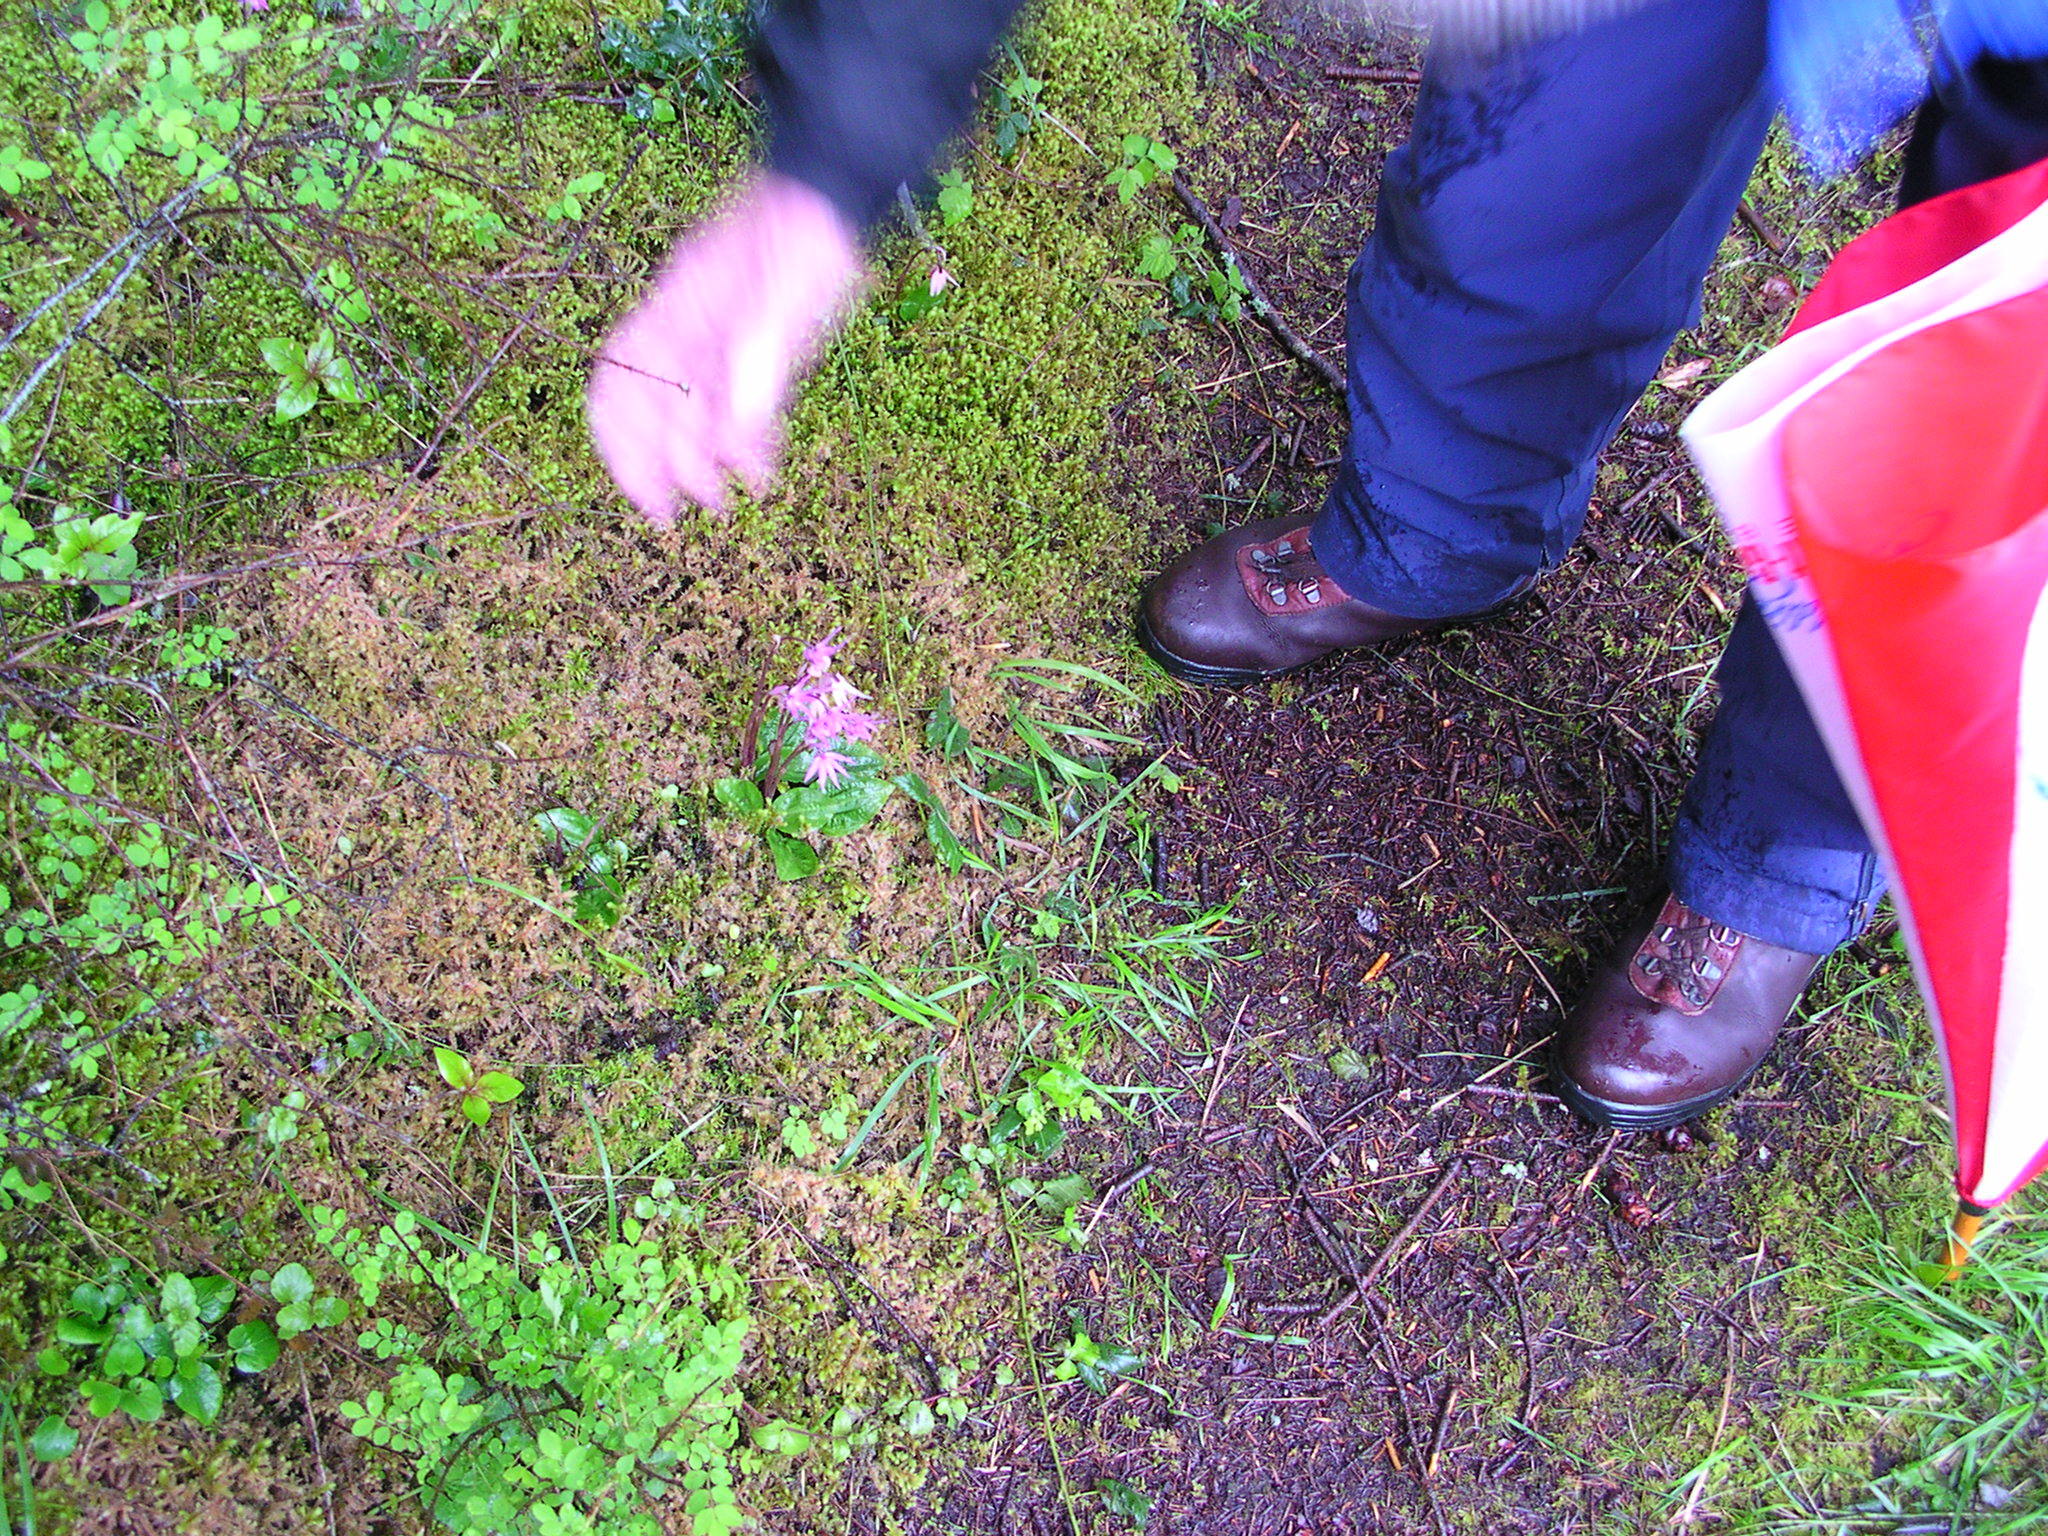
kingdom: Plantae
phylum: Tracheophyta
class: Liliopsida
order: Asparagales
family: Orchidaceae
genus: Calypso
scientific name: Calypso bulbosa
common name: Calypso
